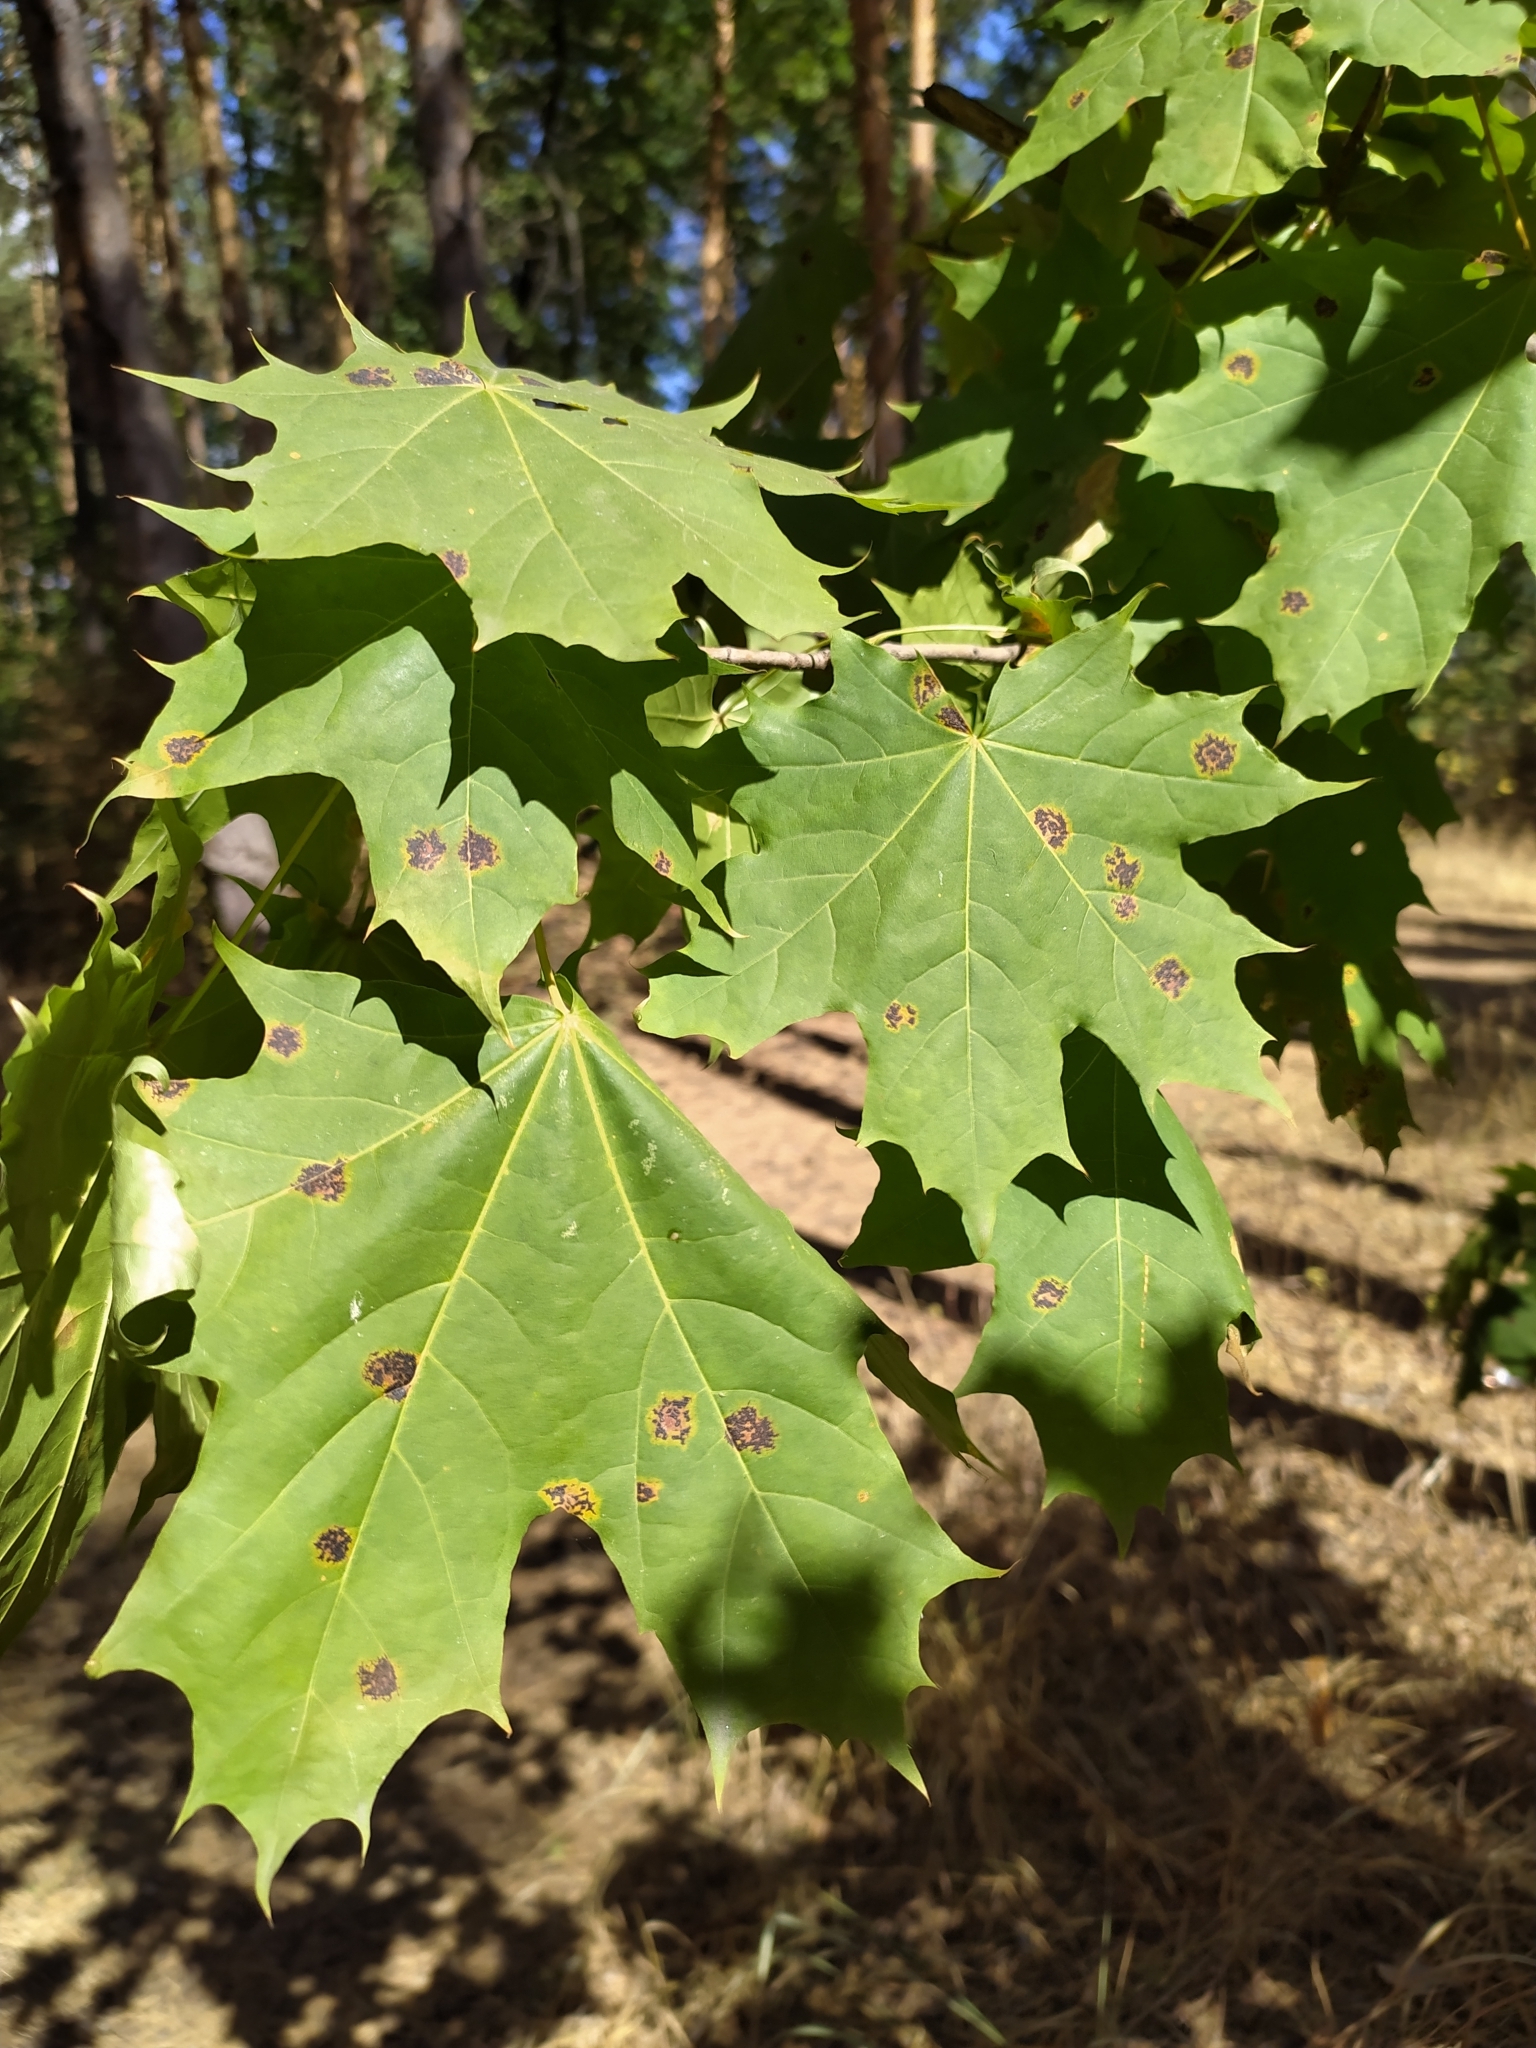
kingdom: Fungi
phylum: Ascomycota
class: Leotiomycetes
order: Rhytismatales
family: Rhytismataceae
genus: Rhytisma
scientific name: Rhytisma acerinum
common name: European tar spot
